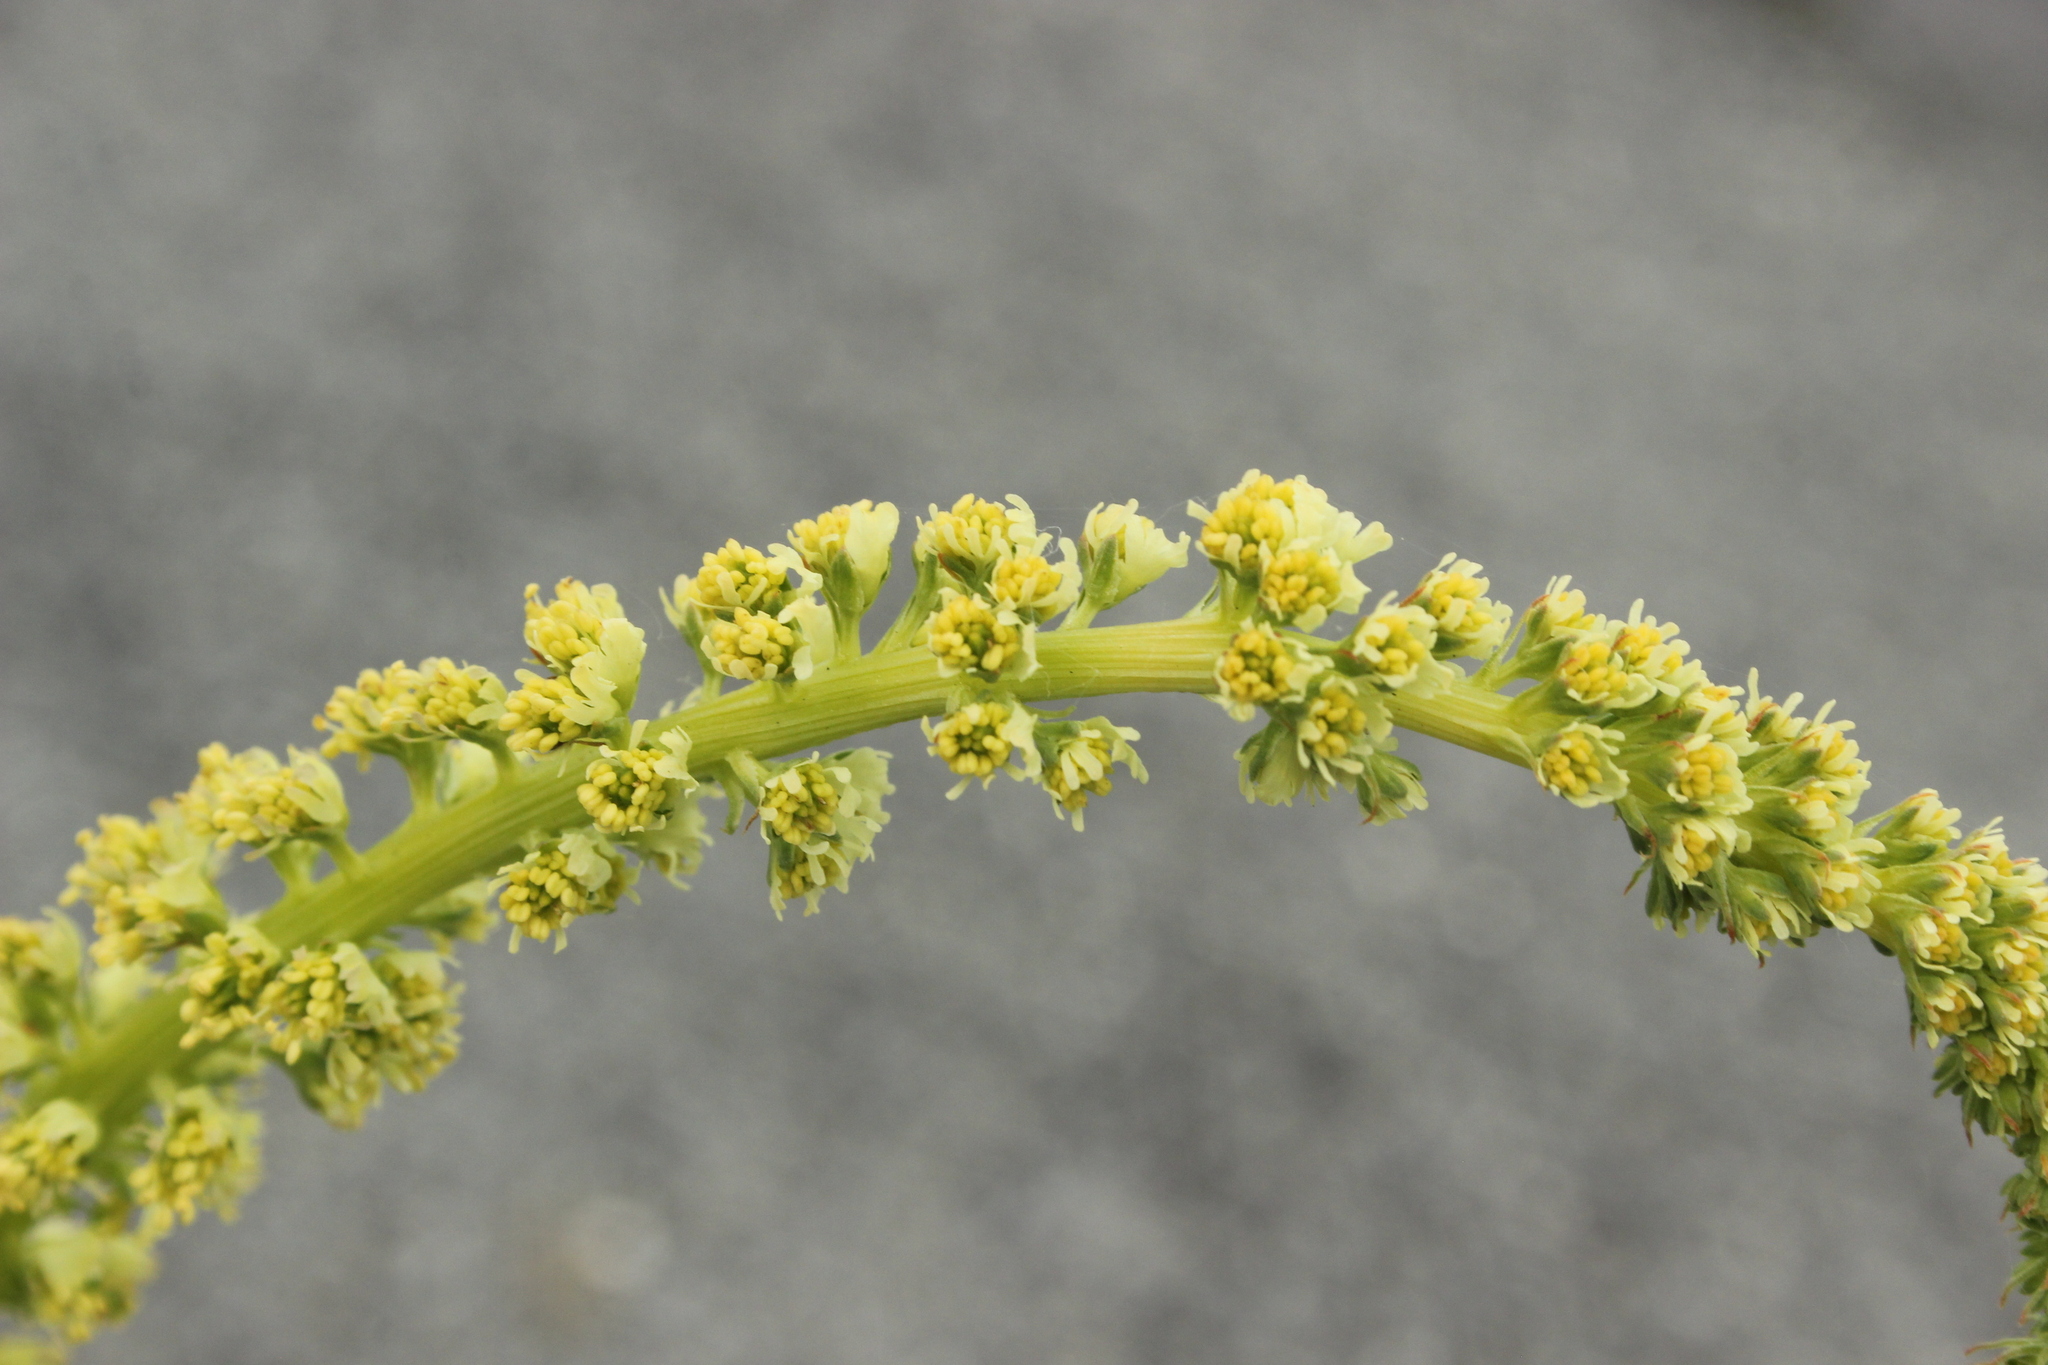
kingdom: Plantae
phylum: Tracheophyta
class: Magnoliopsida
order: Brassicales
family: Resedaceae
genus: Reseda
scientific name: Reseda luteola
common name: Weld
